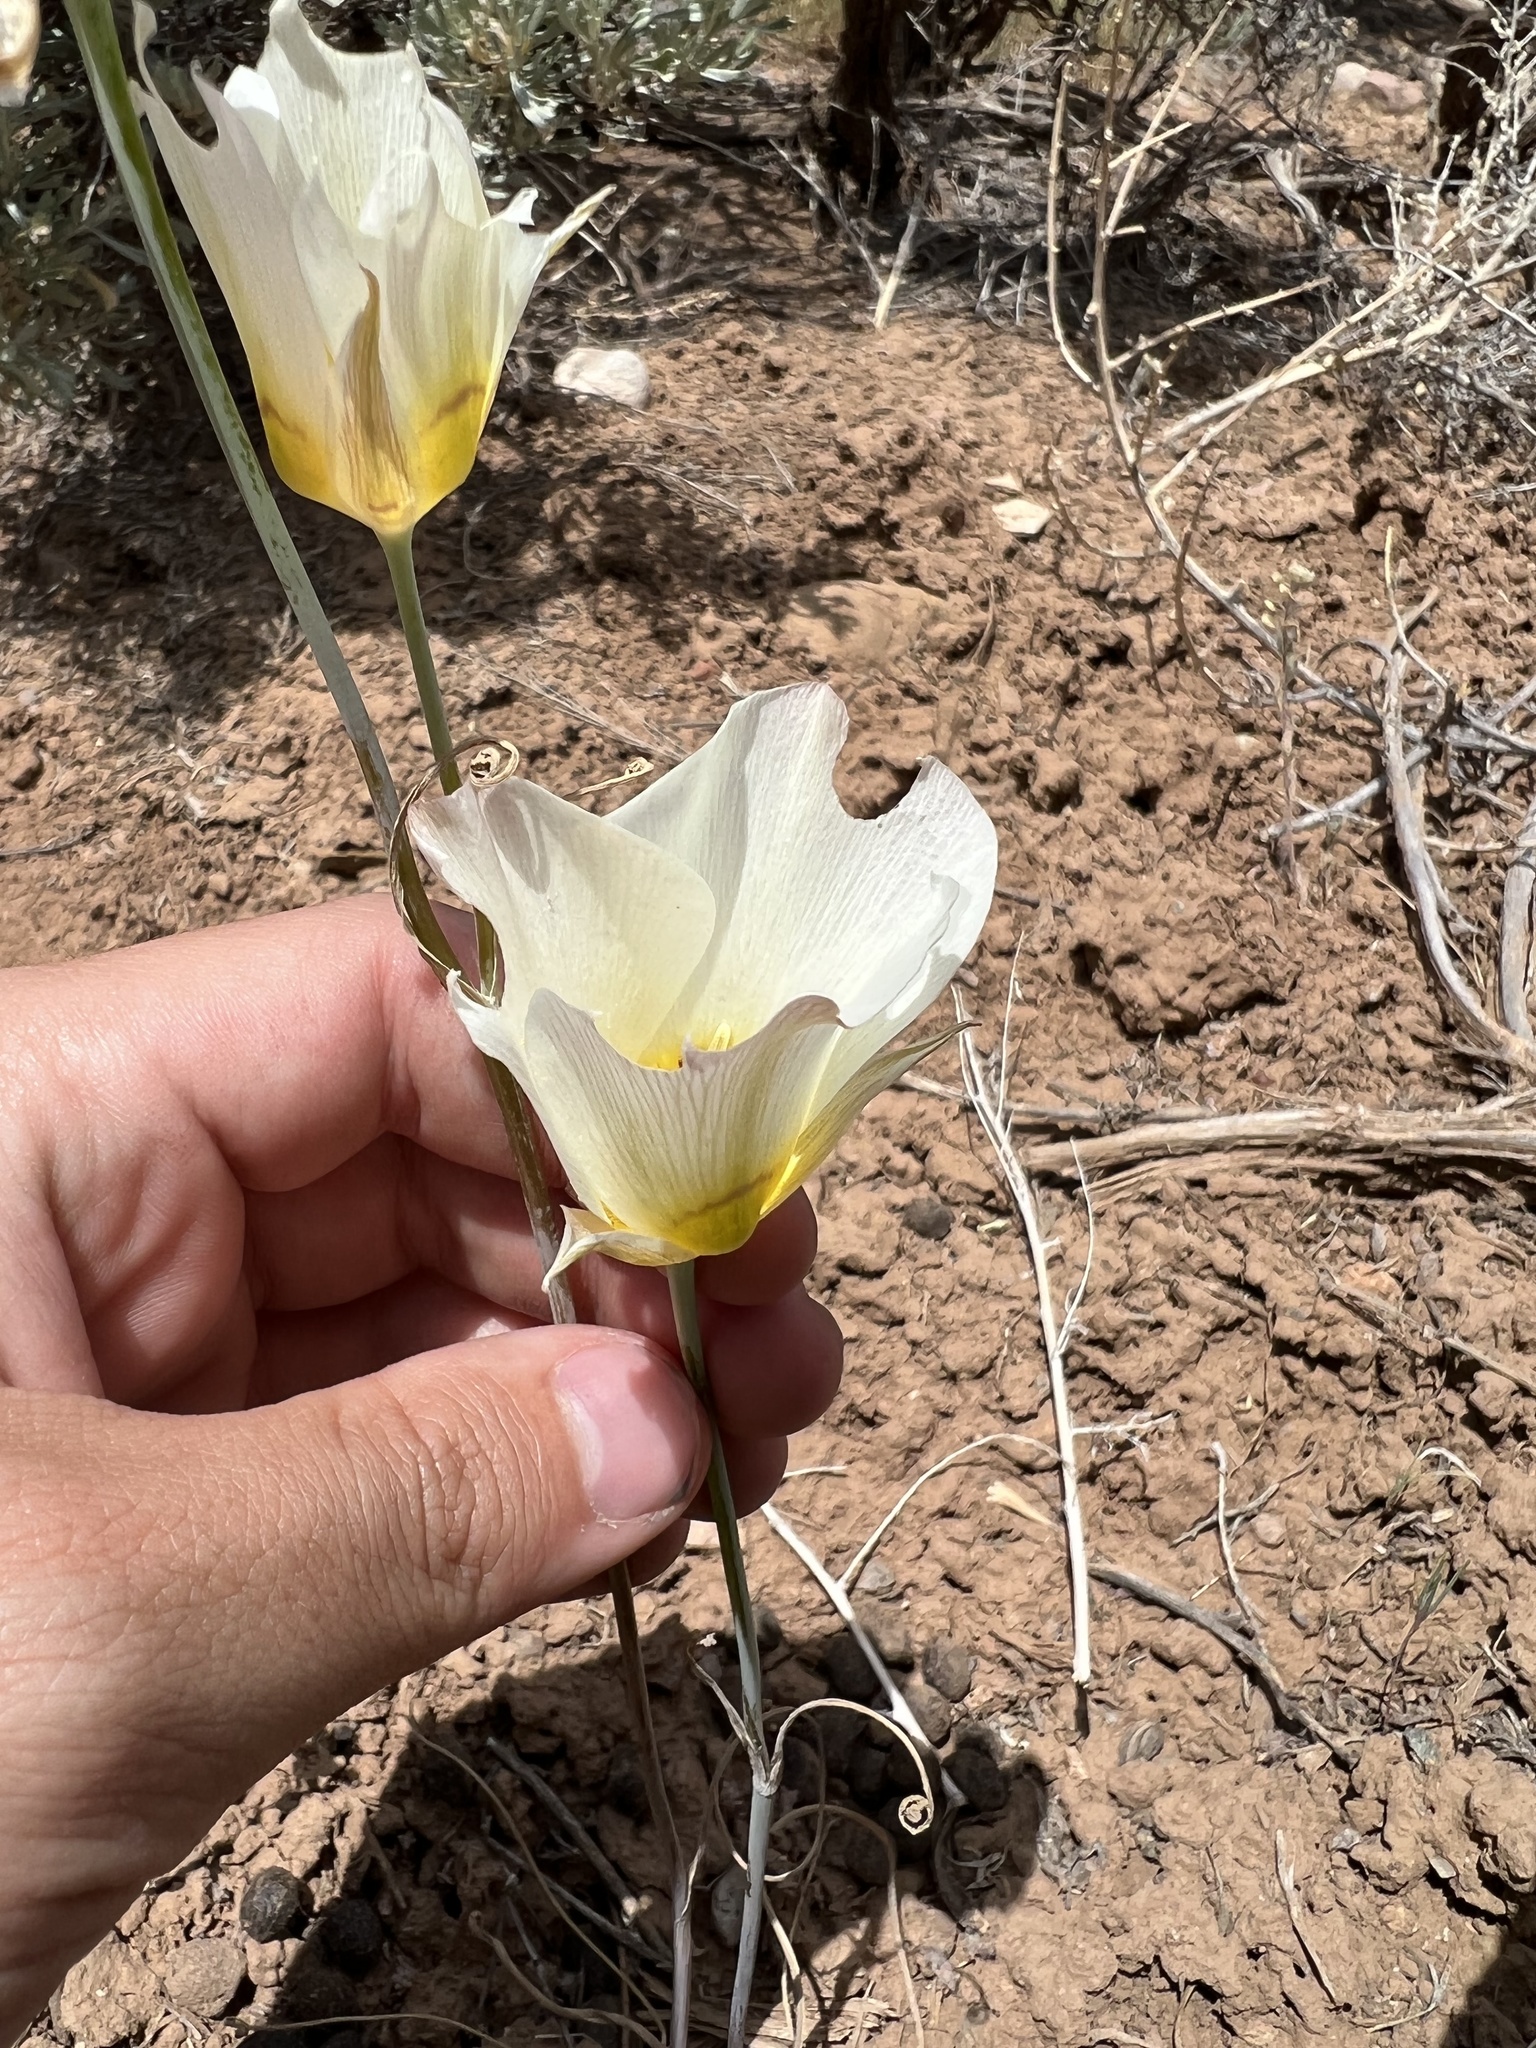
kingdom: Plantae
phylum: Tracheophyta
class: Liliopsida
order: Liliales
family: Liliaceae
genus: Calochortus
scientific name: Calochortus nuttallii
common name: Sego-lily
